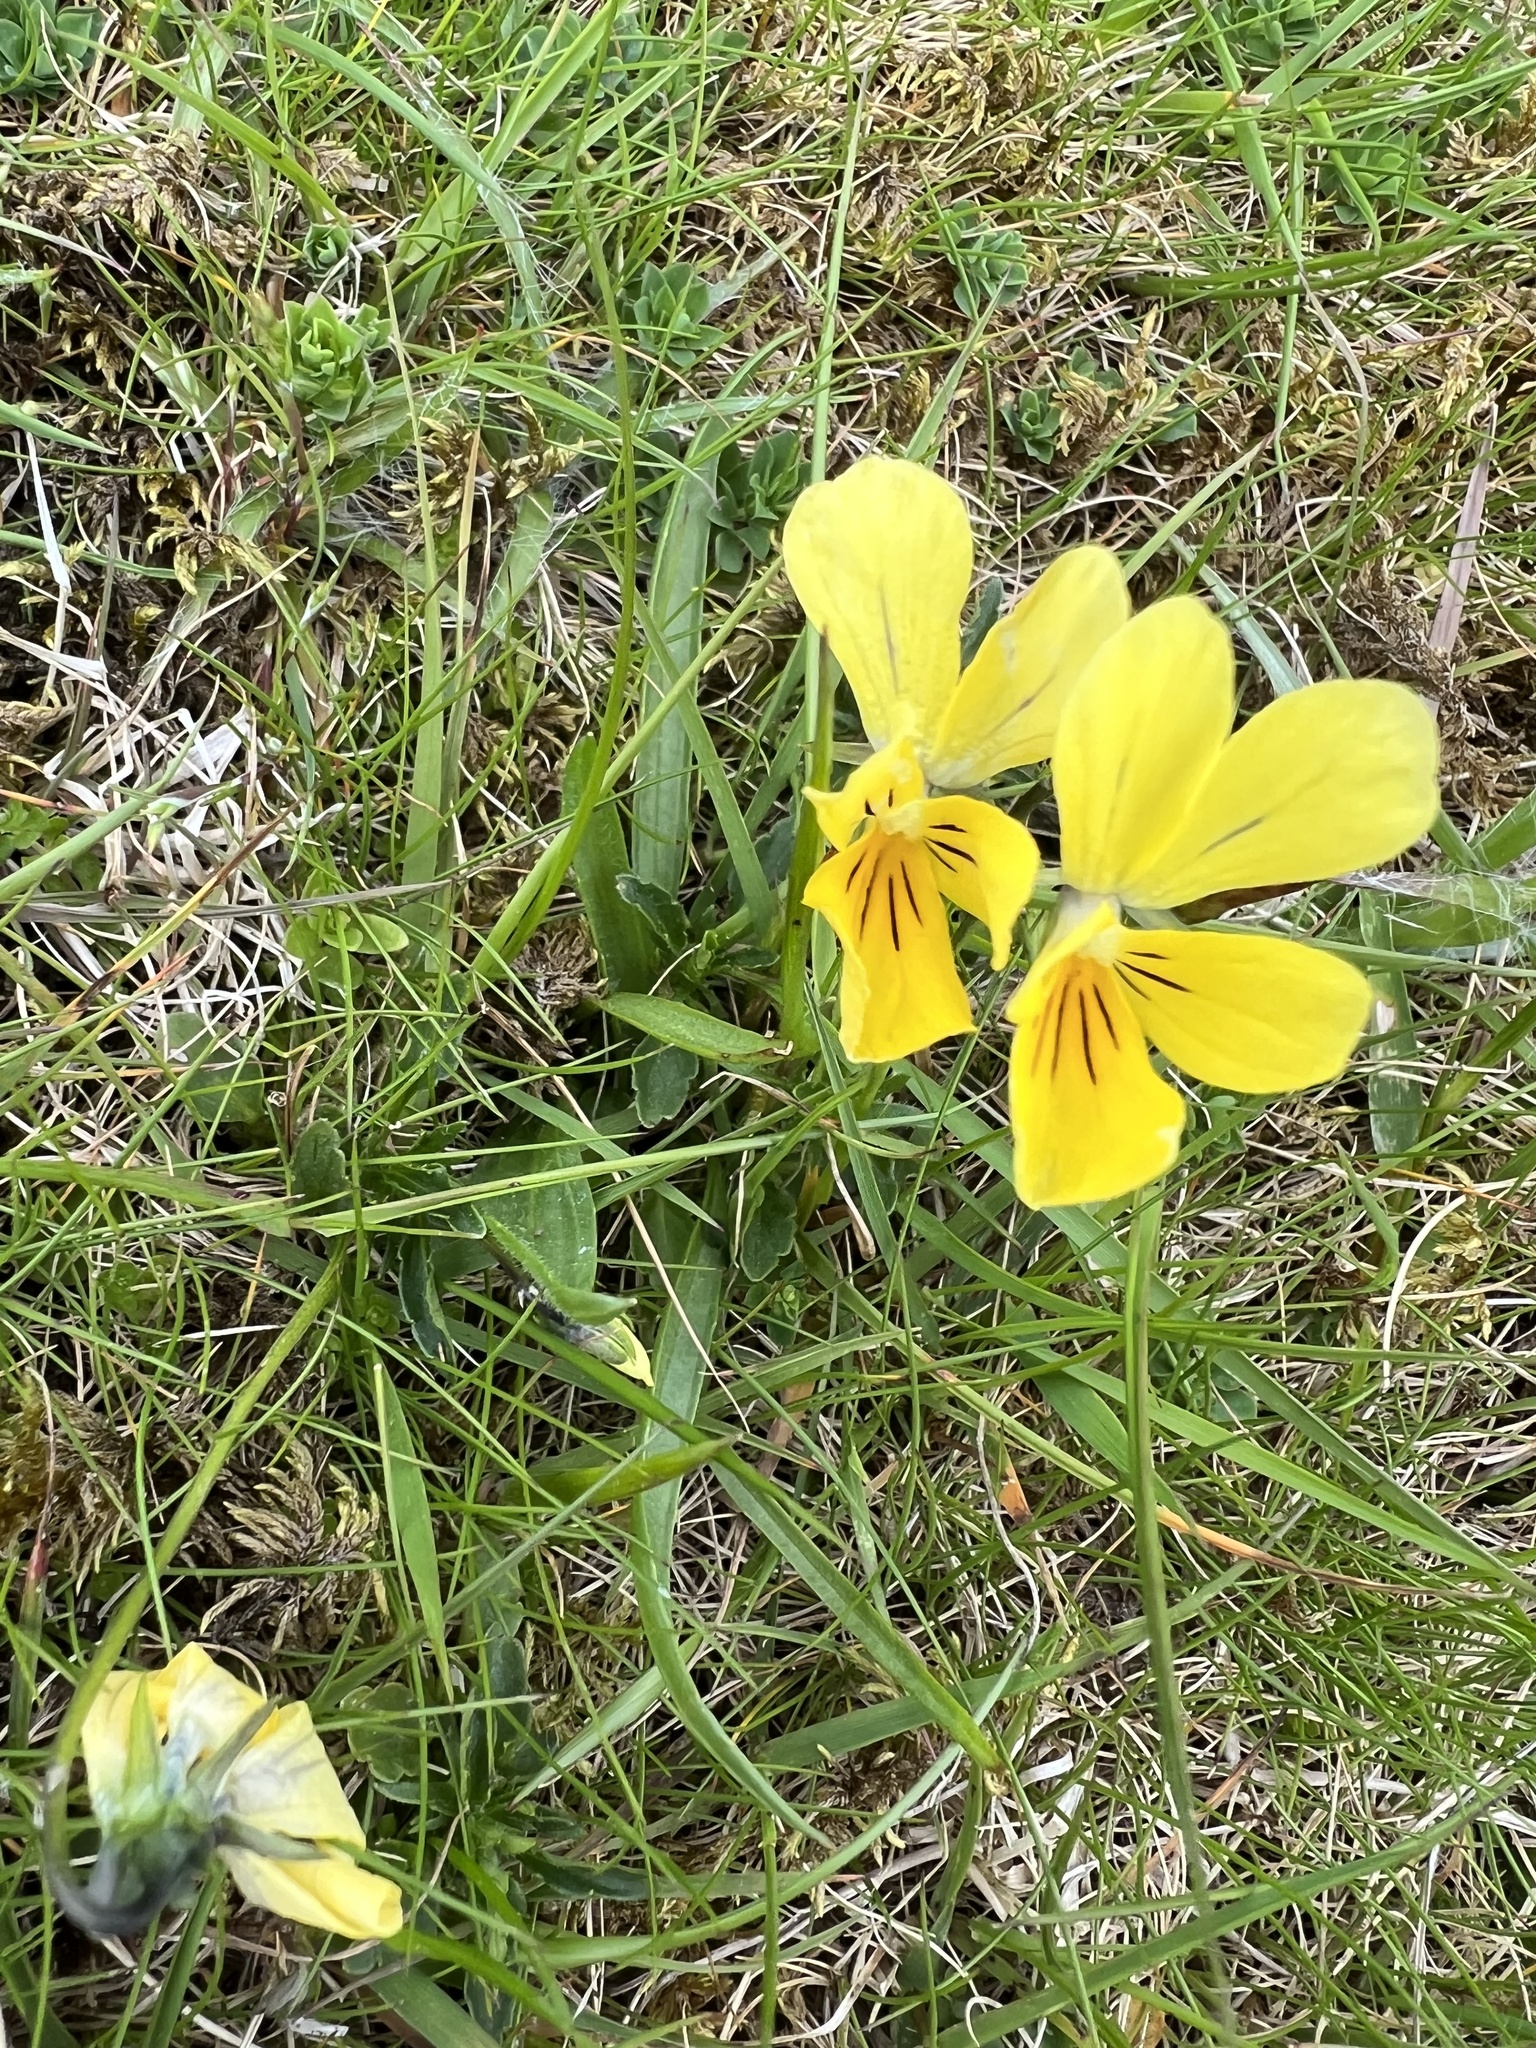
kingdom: Plantae
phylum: Tracheophyta
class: Magnoliopsida
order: Malpighiales
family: Violaceae
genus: Viola
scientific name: Viola lutea
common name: Mountain pansy
